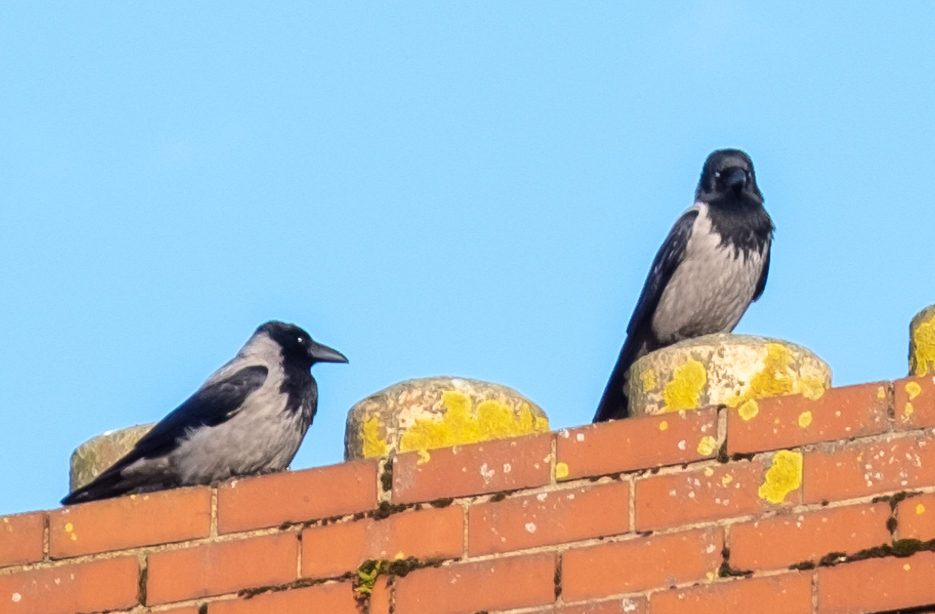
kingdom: Animalia
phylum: Chordata
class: Aves
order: Passeriformes
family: Corvidae
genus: Corvus
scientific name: Corvus cornix
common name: Hooded crow
